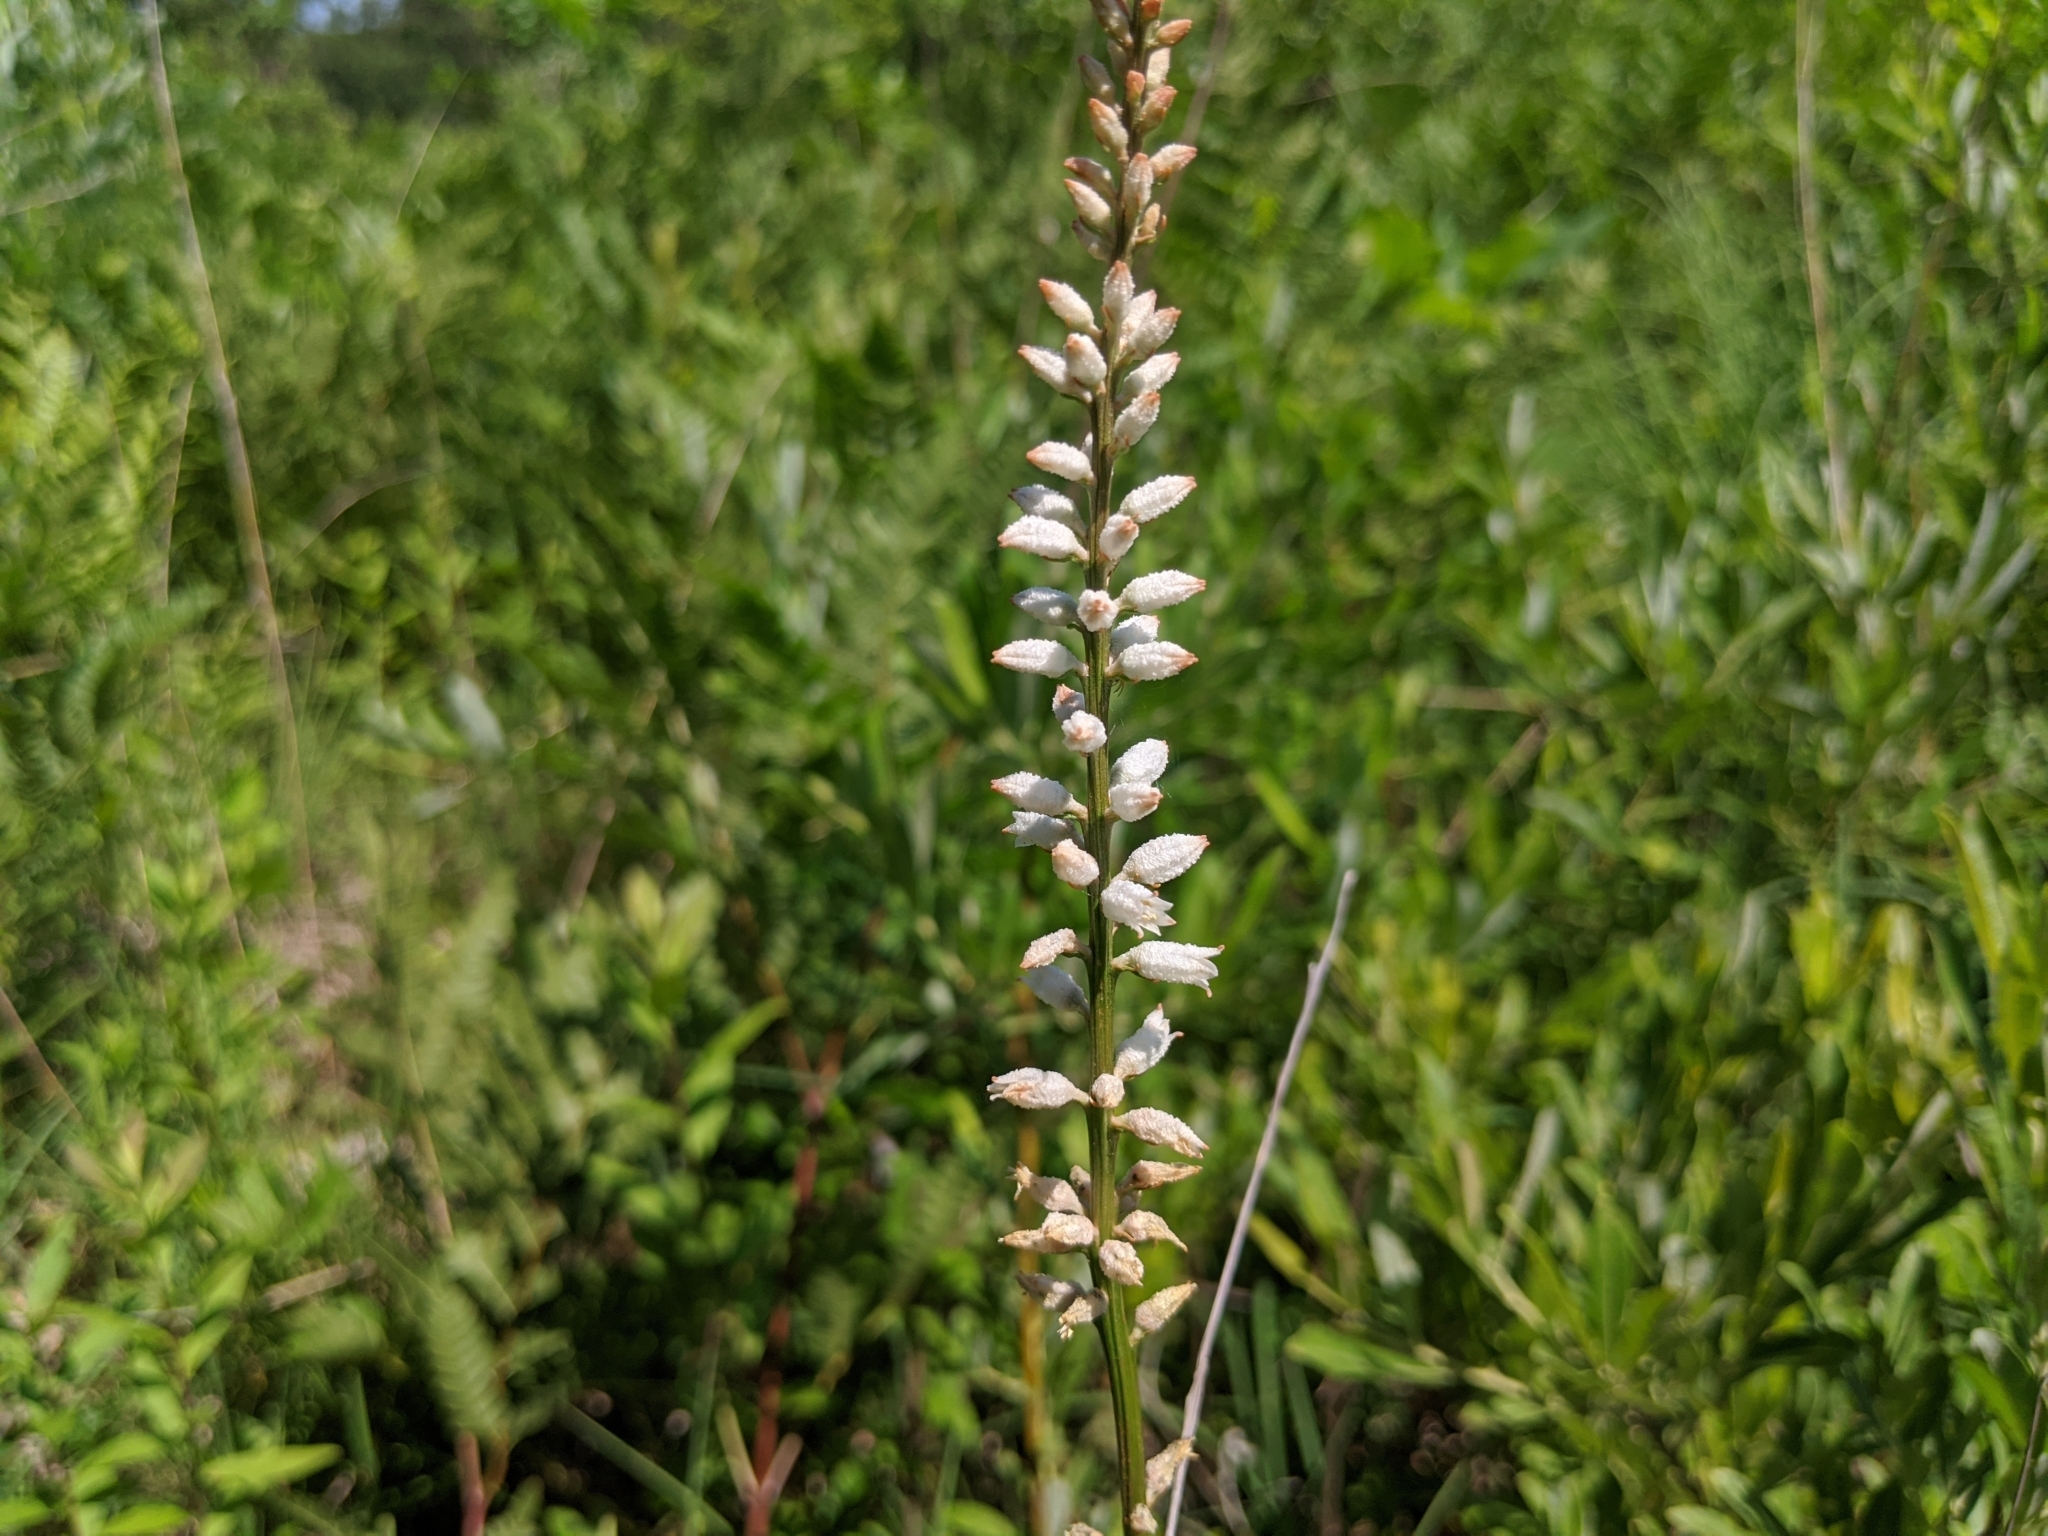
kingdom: Plantae
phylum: Tracheophyta
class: Liliopsida
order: Dioscoreales
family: Nartheciaceae
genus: Aletris
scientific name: Aletris farinosa
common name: Colicroot
